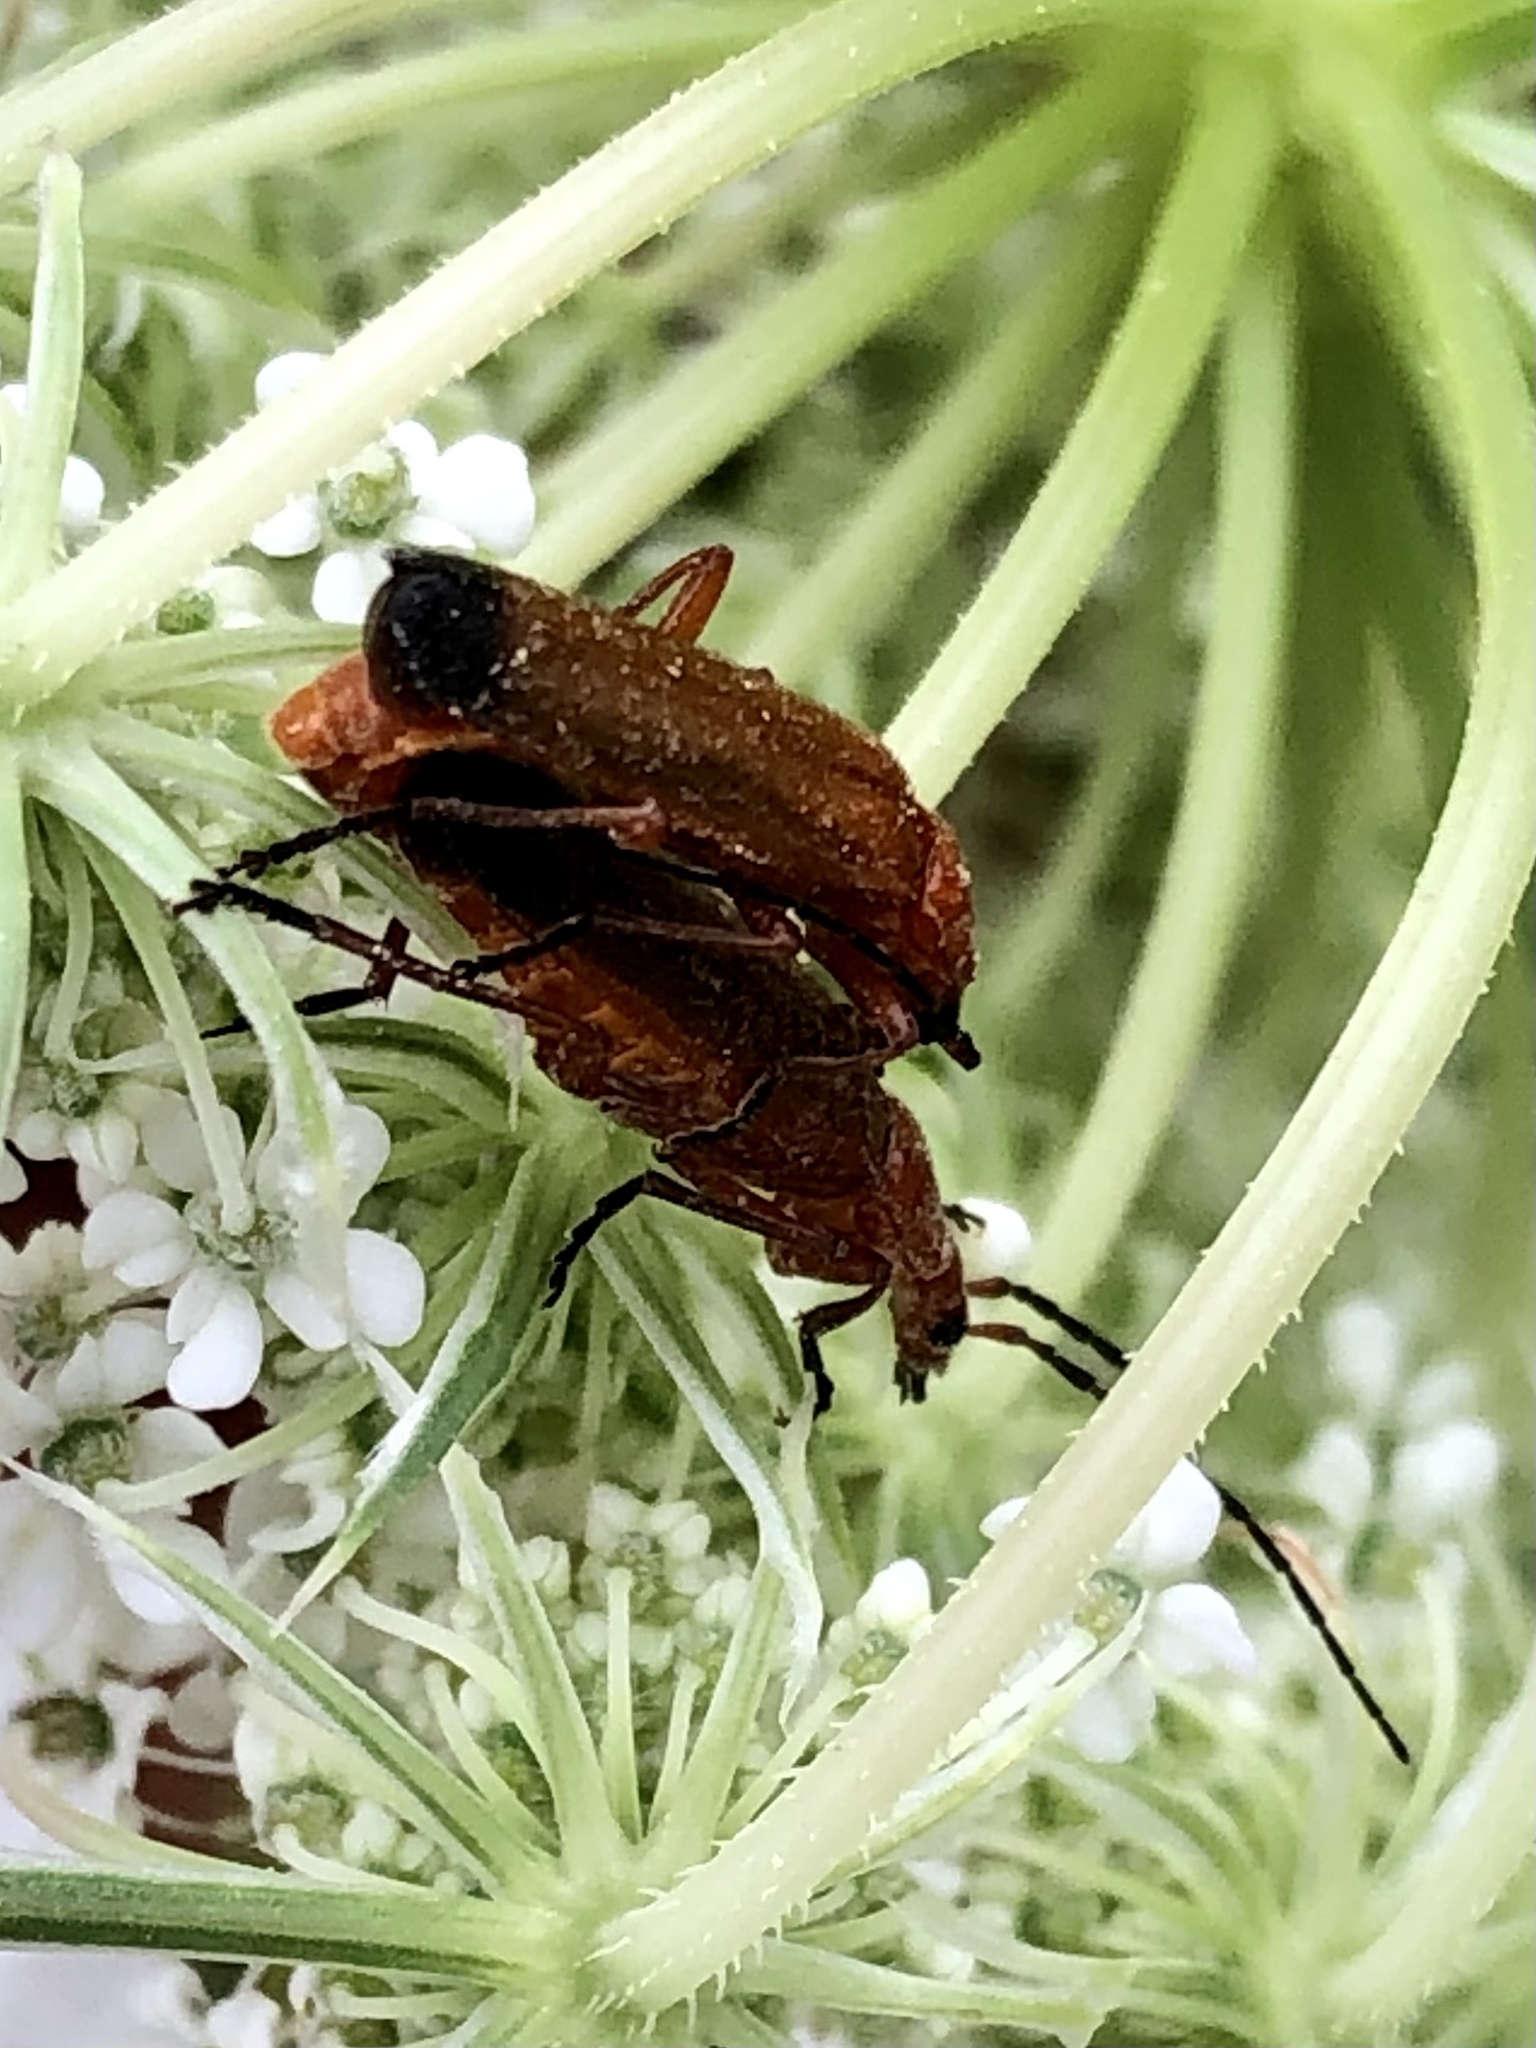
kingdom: Animalia
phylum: Arthropoda
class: Insecta
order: Coleoptera
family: Cantharidae
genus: Rhagonycha
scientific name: Rhagonycha fulva
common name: Common red soldier beetle
